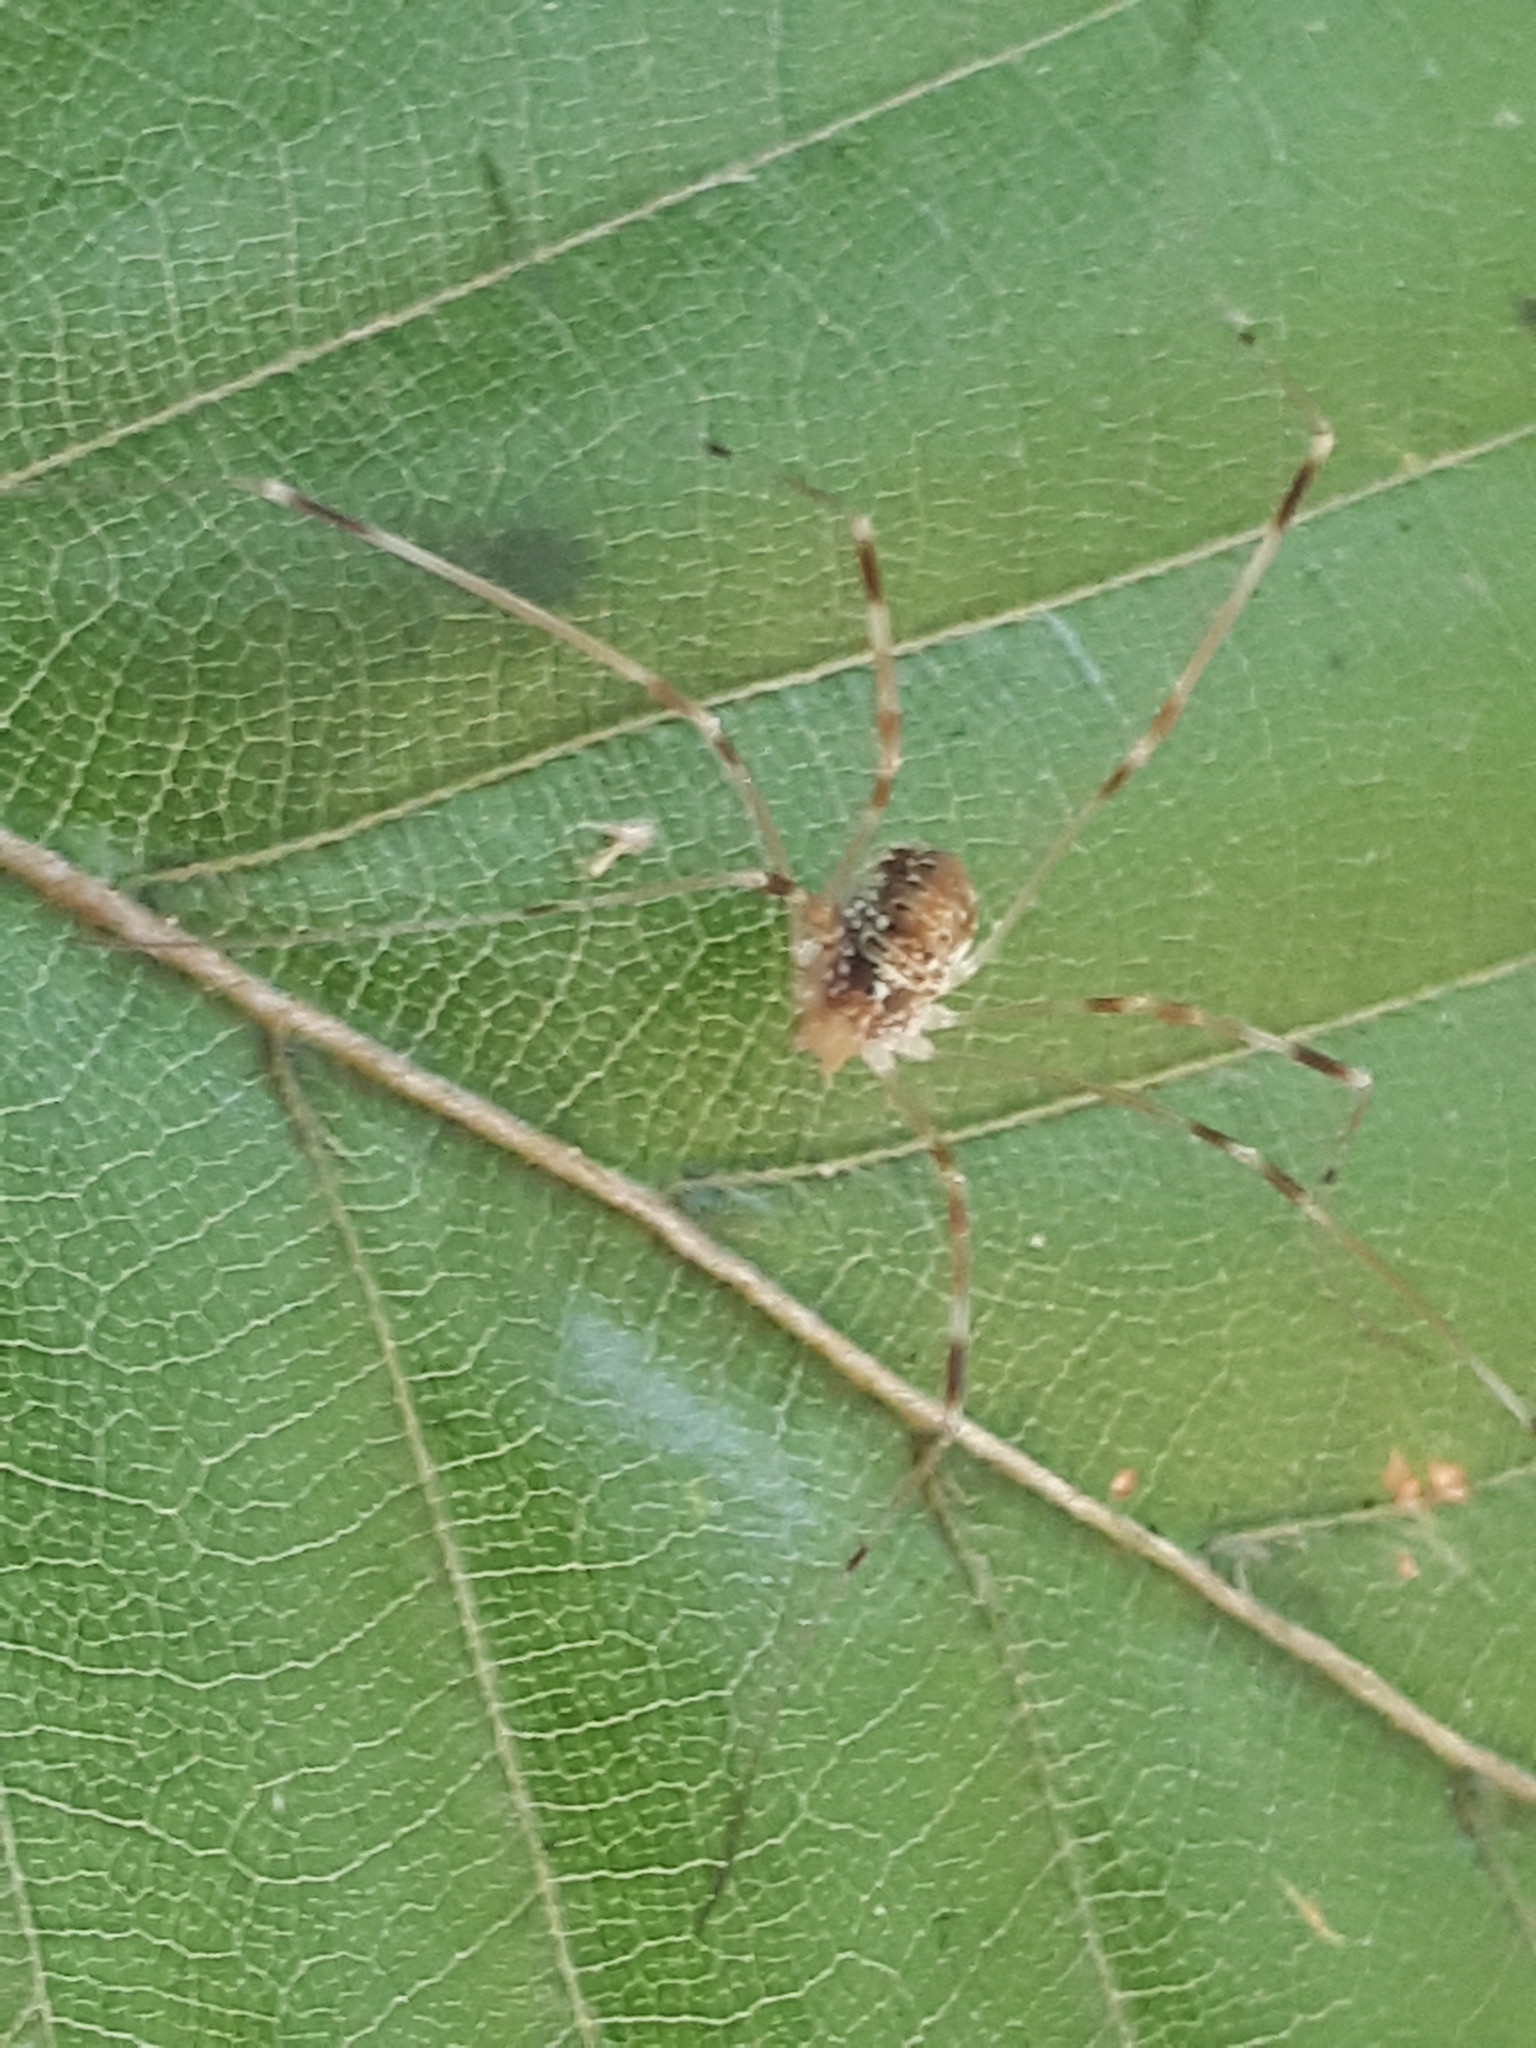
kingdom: Animalia
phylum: Arthropoda
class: Arachnida
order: Opiliones
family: Phalangiidae
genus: Opilio
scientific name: Opilio canestrinii
